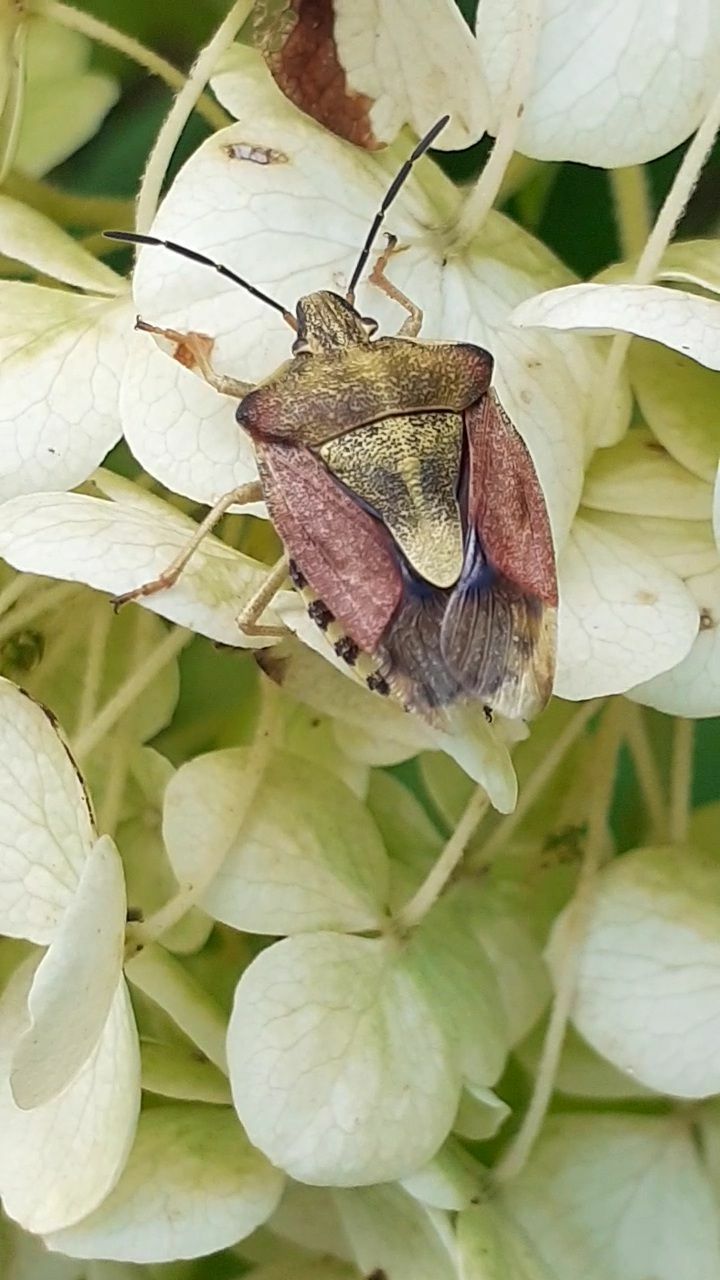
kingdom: Animalia
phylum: Arthropoda
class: Insecta
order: Hemiptera
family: Pentatomidae
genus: Carpocoris
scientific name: Carpocoris purpureipennis
